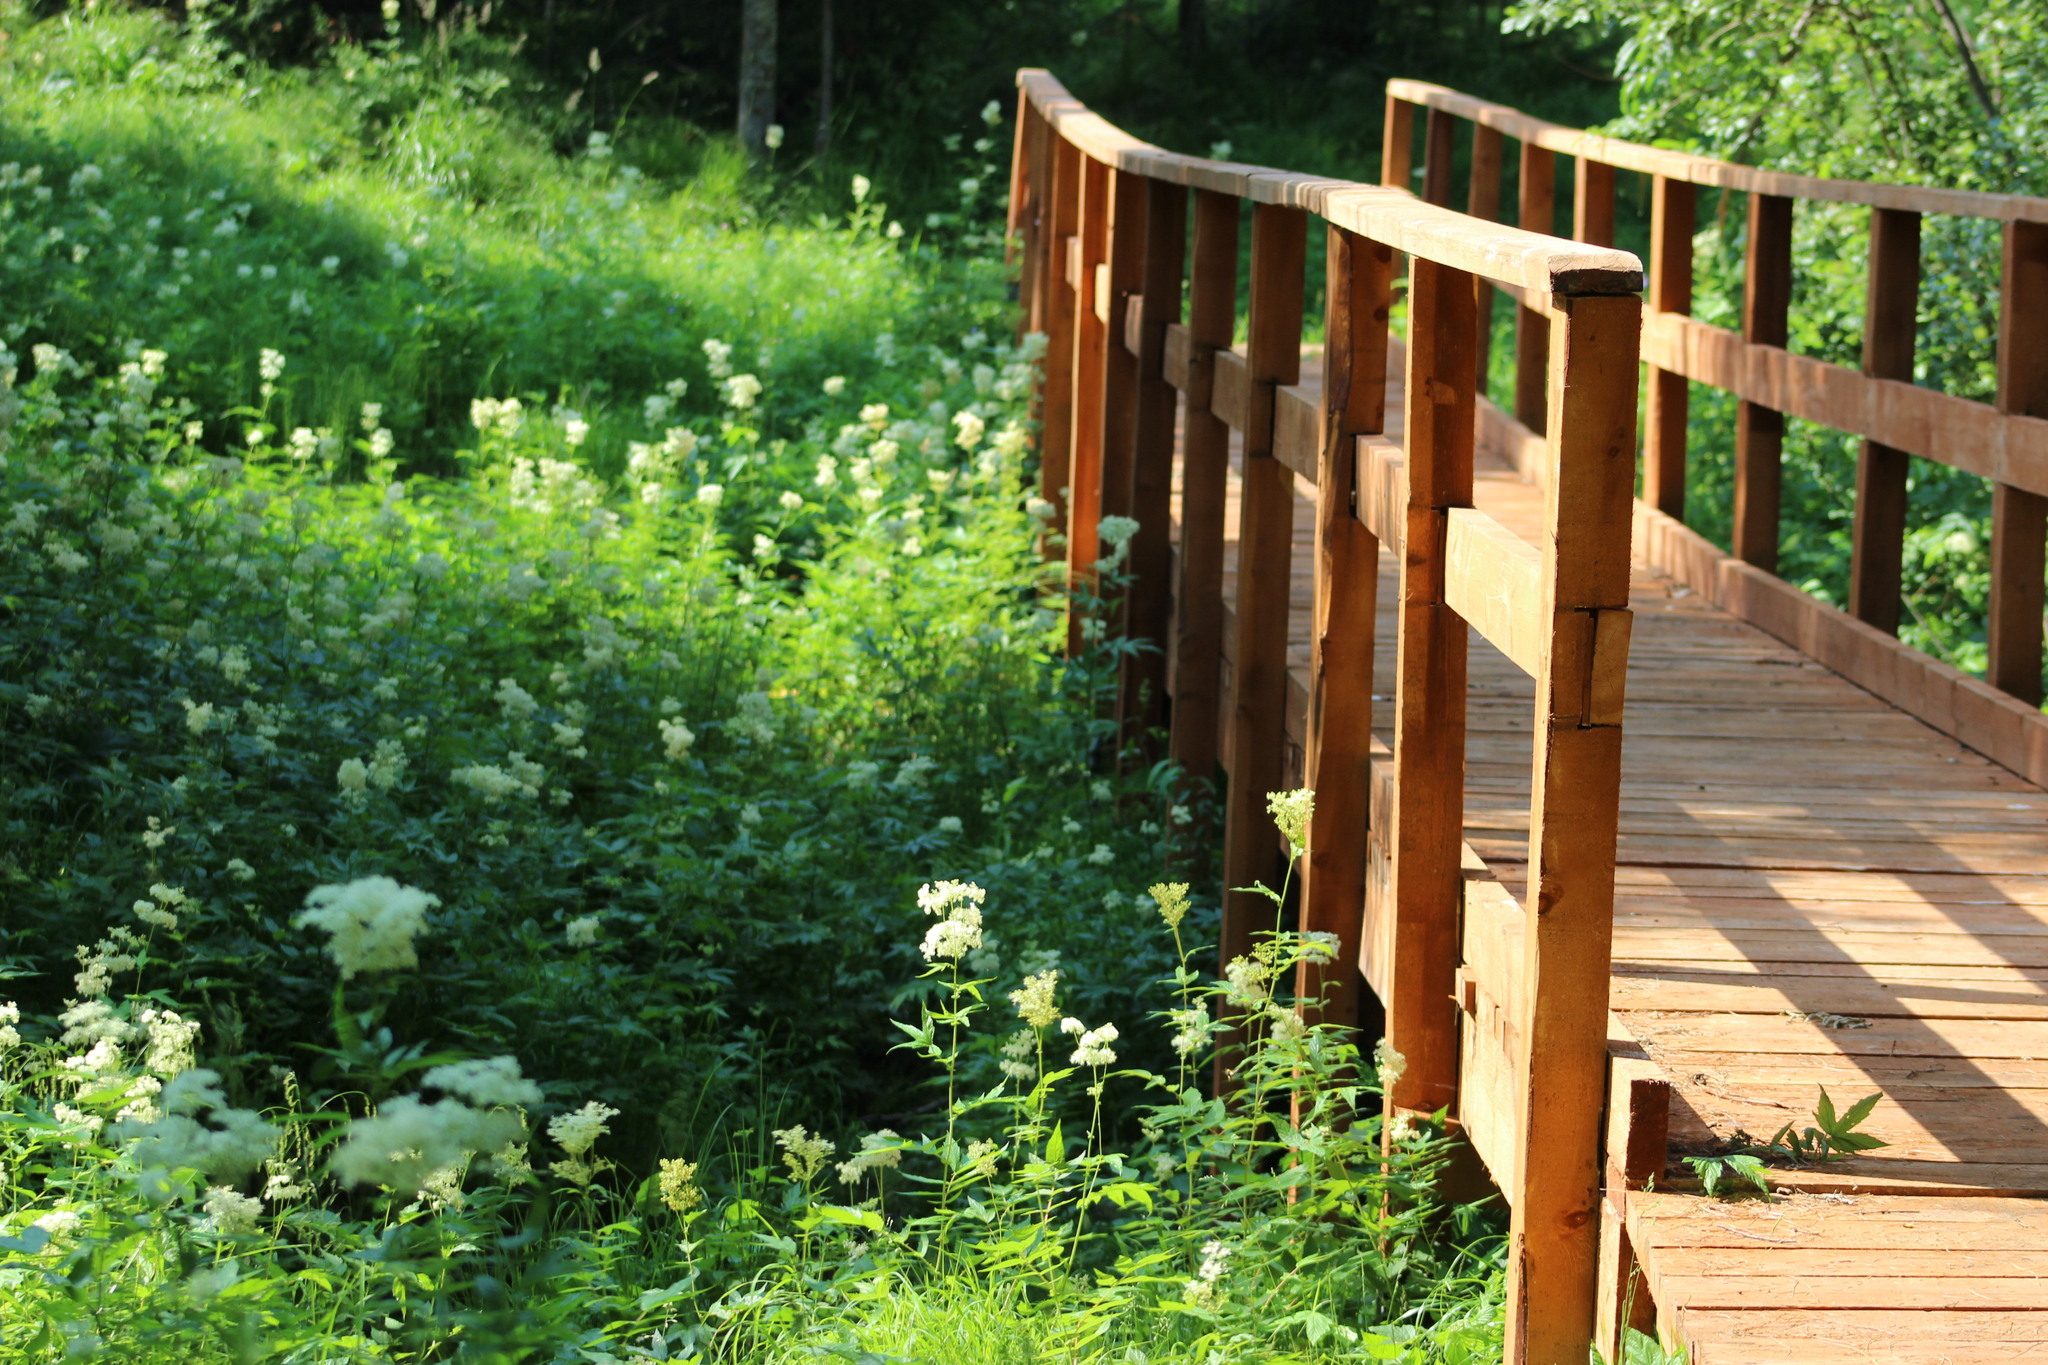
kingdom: Plantae
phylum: Tracheophyta
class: Magnoliopsida
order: Rosales
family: Rosaceae
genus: Filipendula
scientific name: Filipendula ulmaria
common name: Meadowsweet
